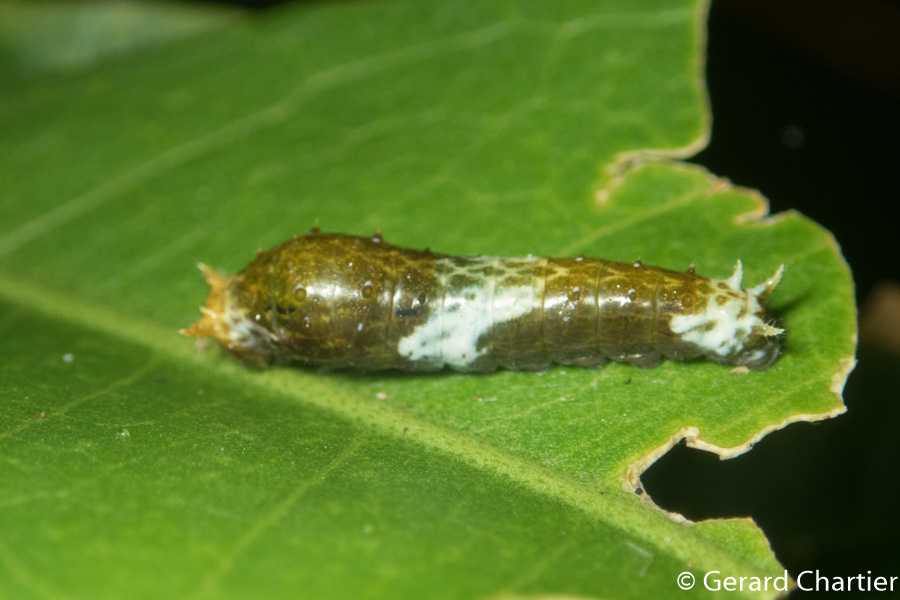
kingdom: Animalia
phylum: Arthropoda
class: Insecta
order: Lepidoptera
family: Papilionidae
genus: Papilio
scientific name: Papilio polytes
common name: Common mormon
